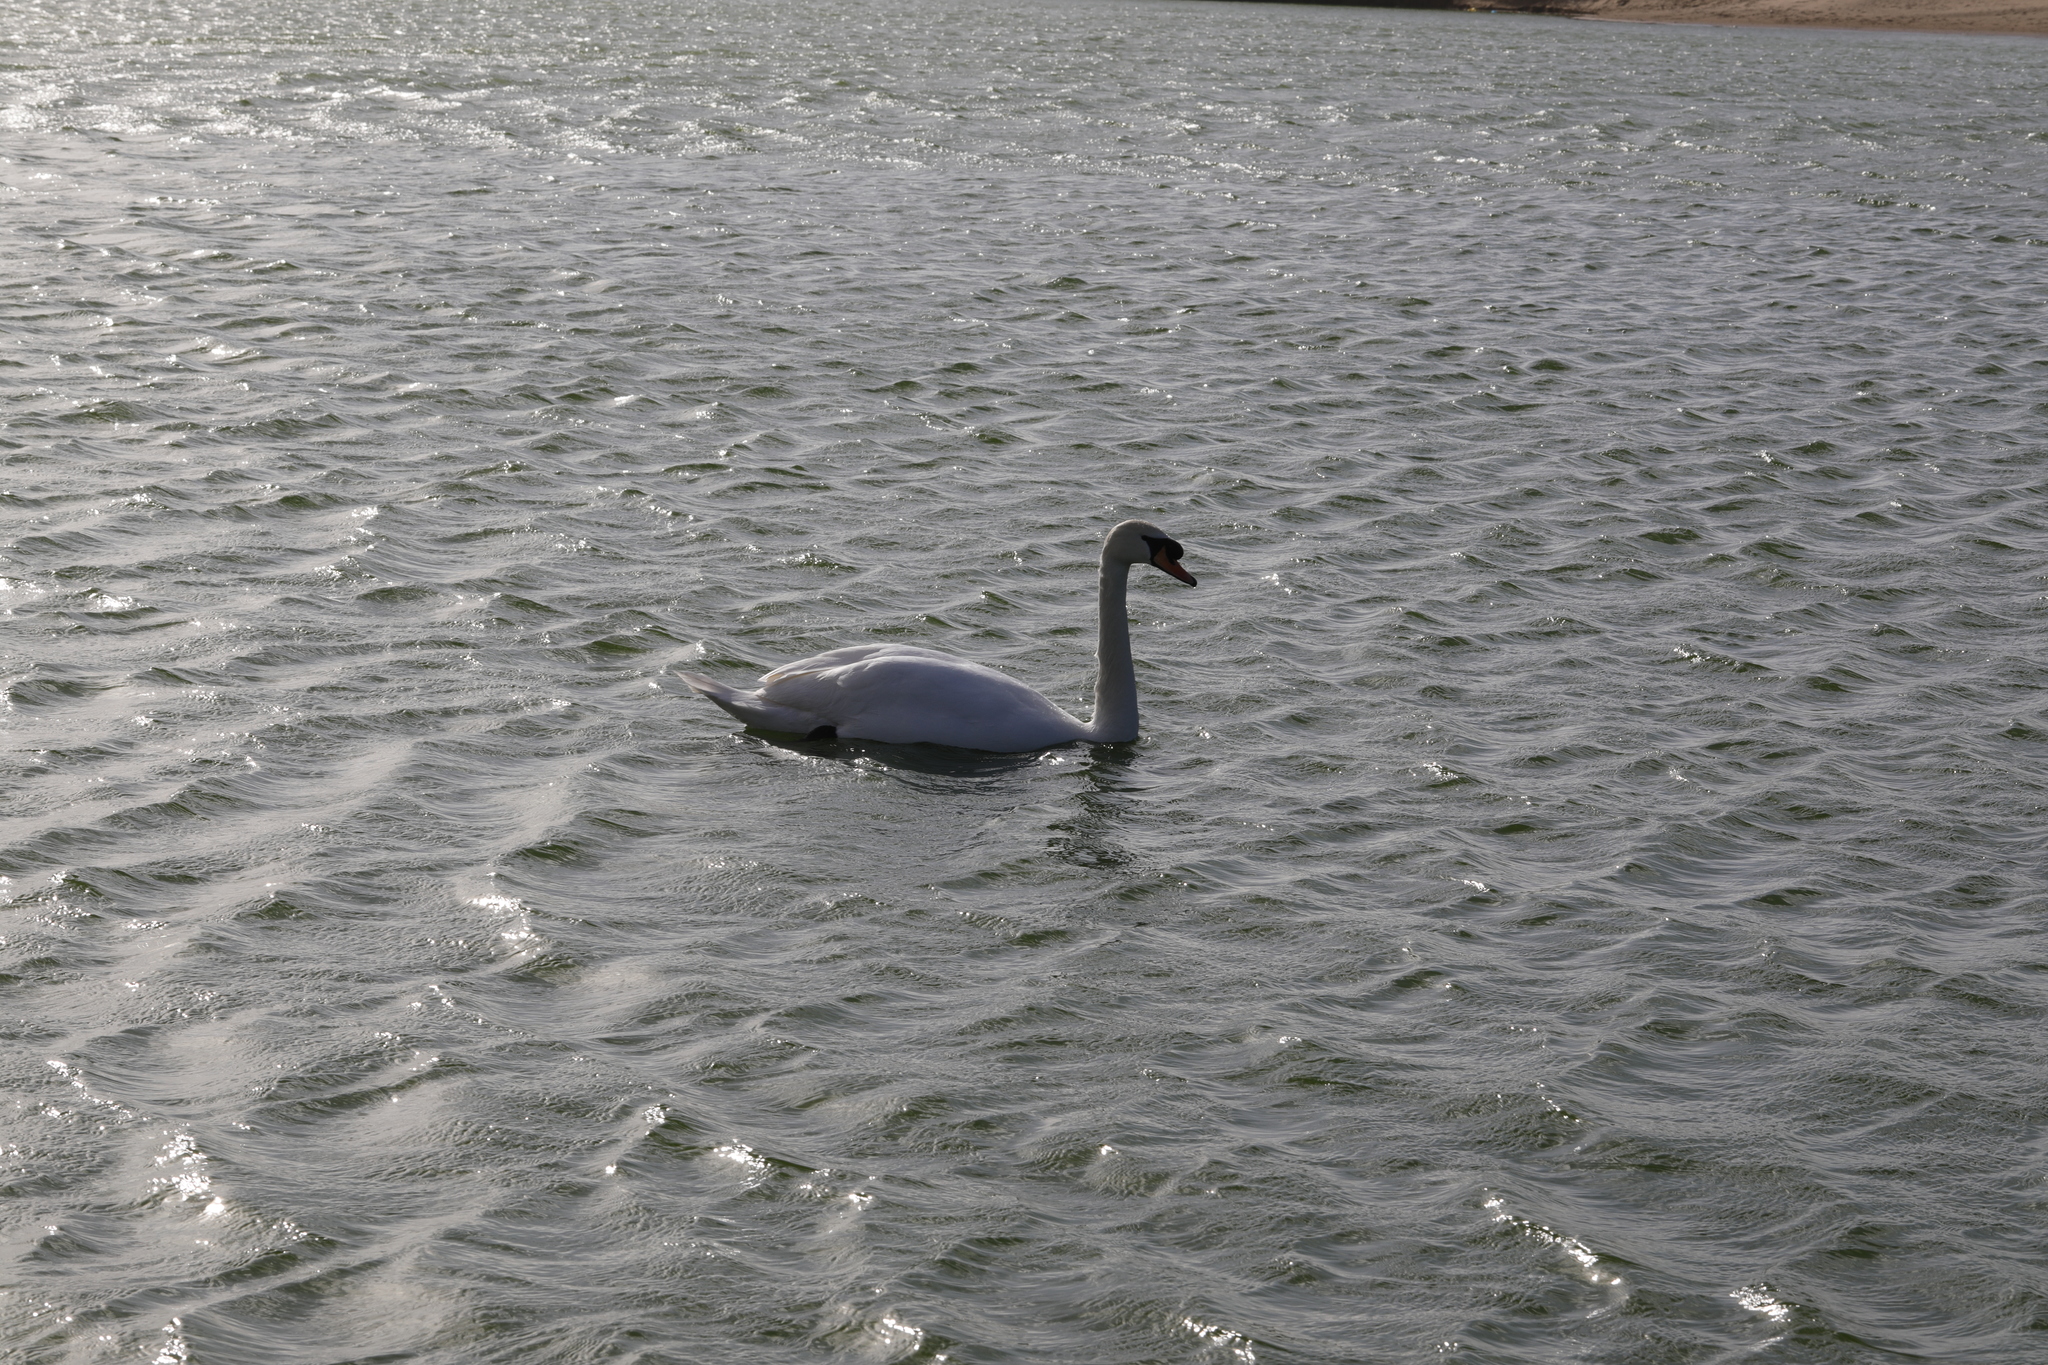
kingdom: Animalia
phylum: Chordata
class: Aves
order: Anseriformes
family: Anatidae
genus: Cygnus
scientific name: Cygnus olor
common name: Mute swan
